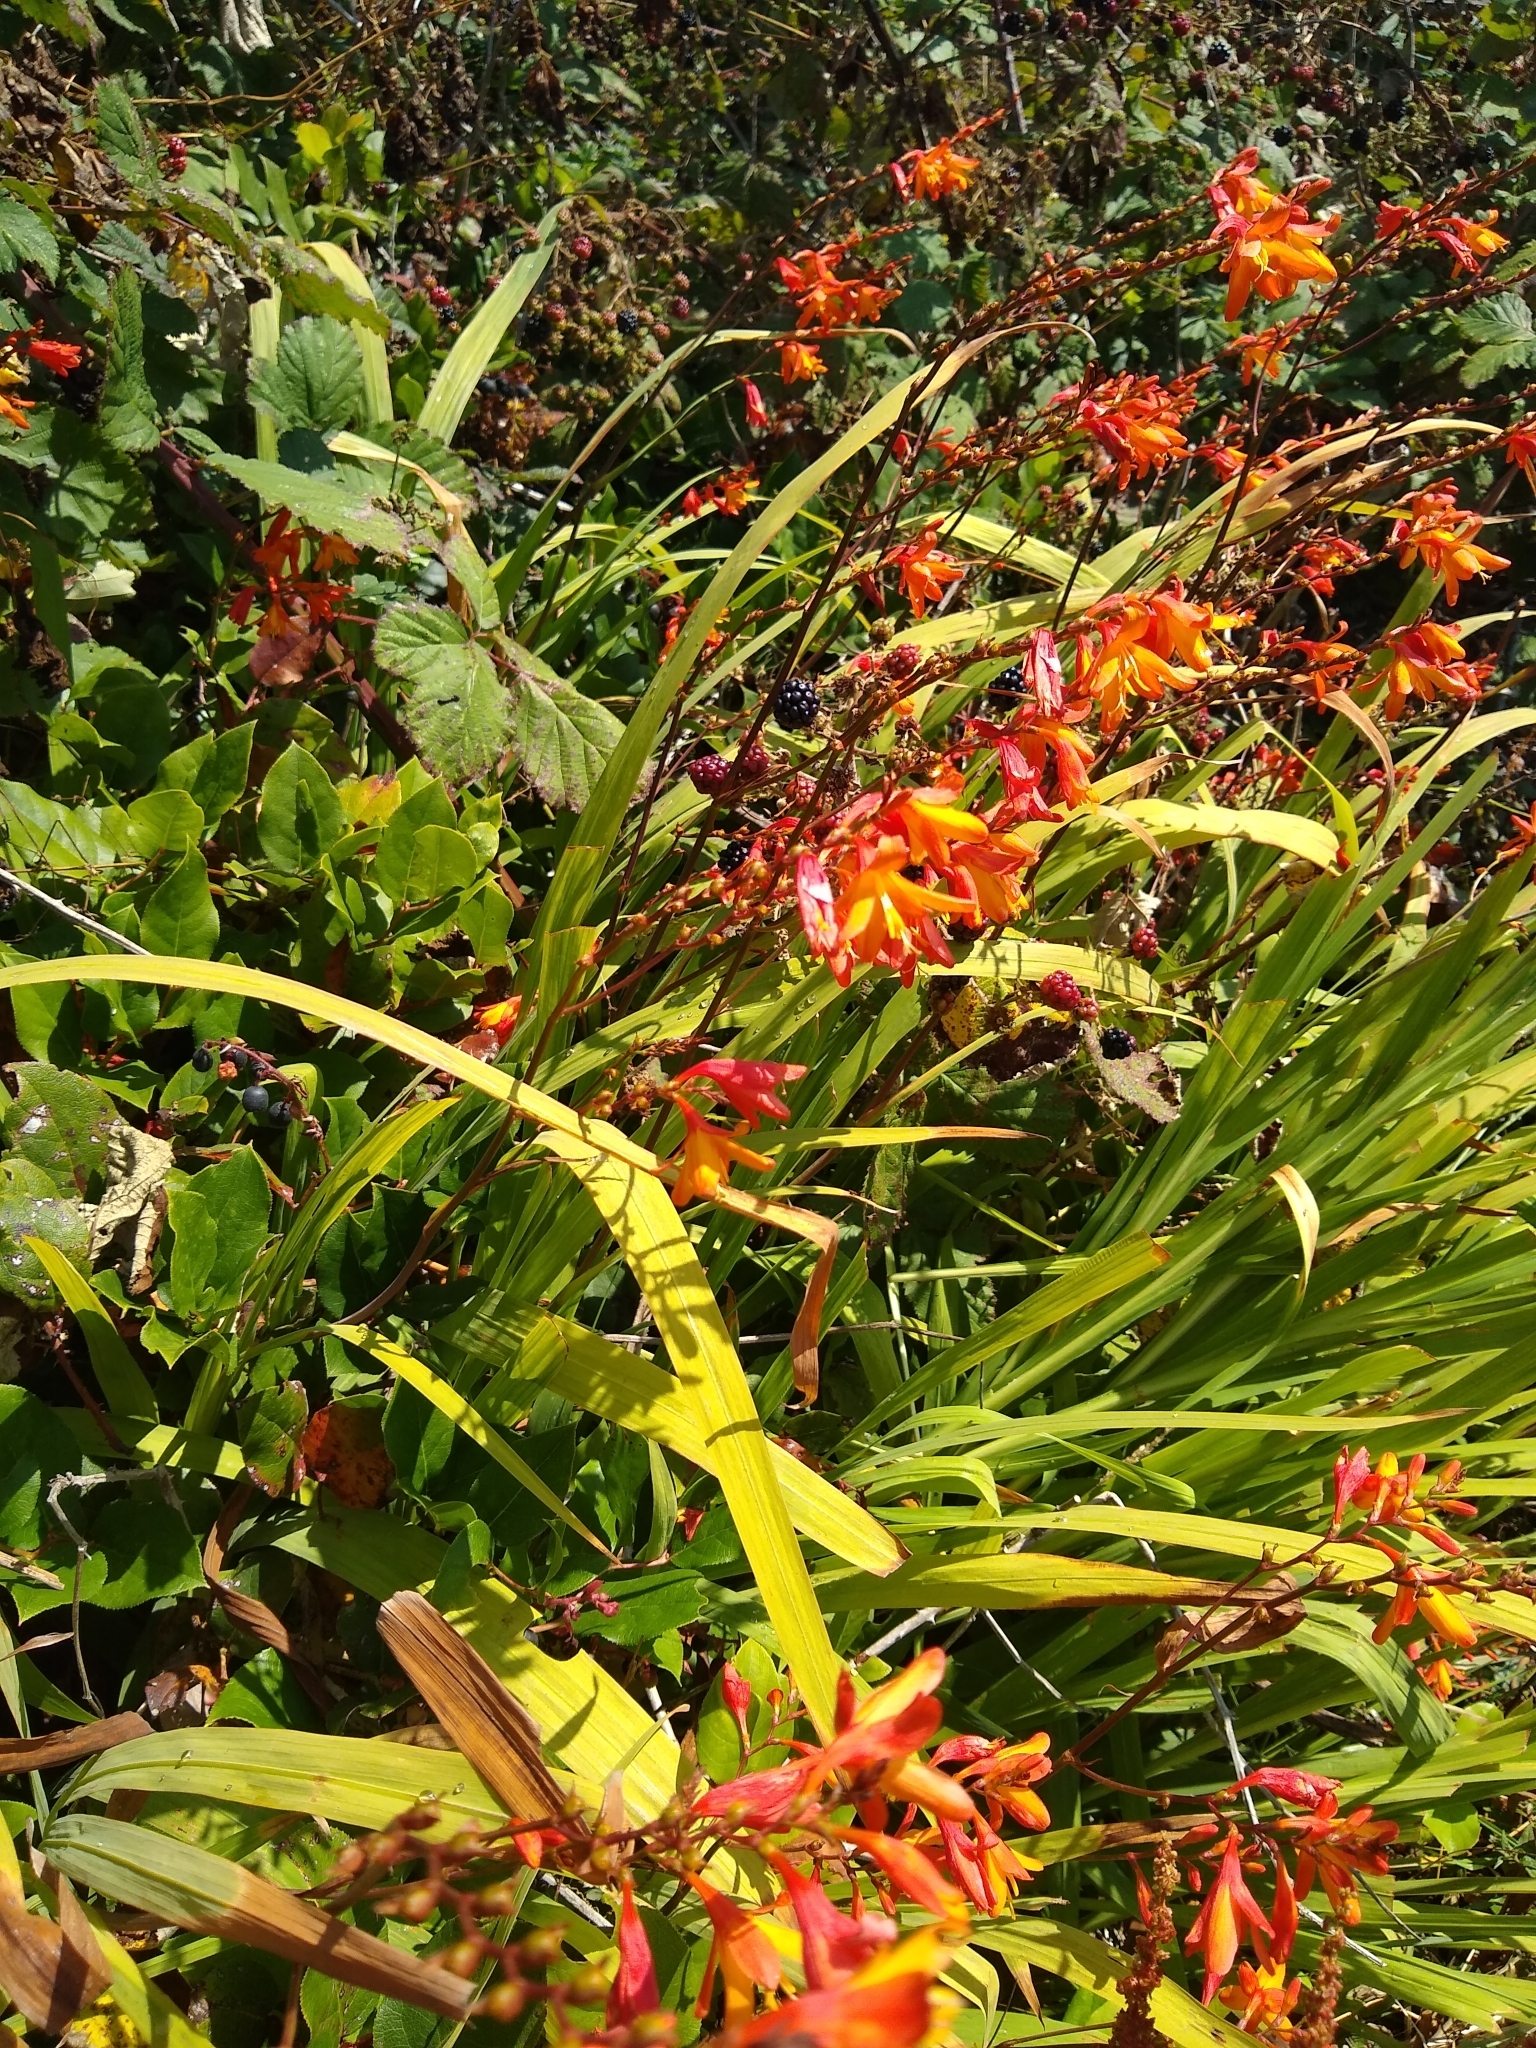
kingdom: Plantae
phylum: Tracheophyta
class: Liliopsida
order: Asparagales
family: Iridaceae
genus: Crocosmia
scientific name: Crocosmia crocosmiiflora
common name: Montbretia
